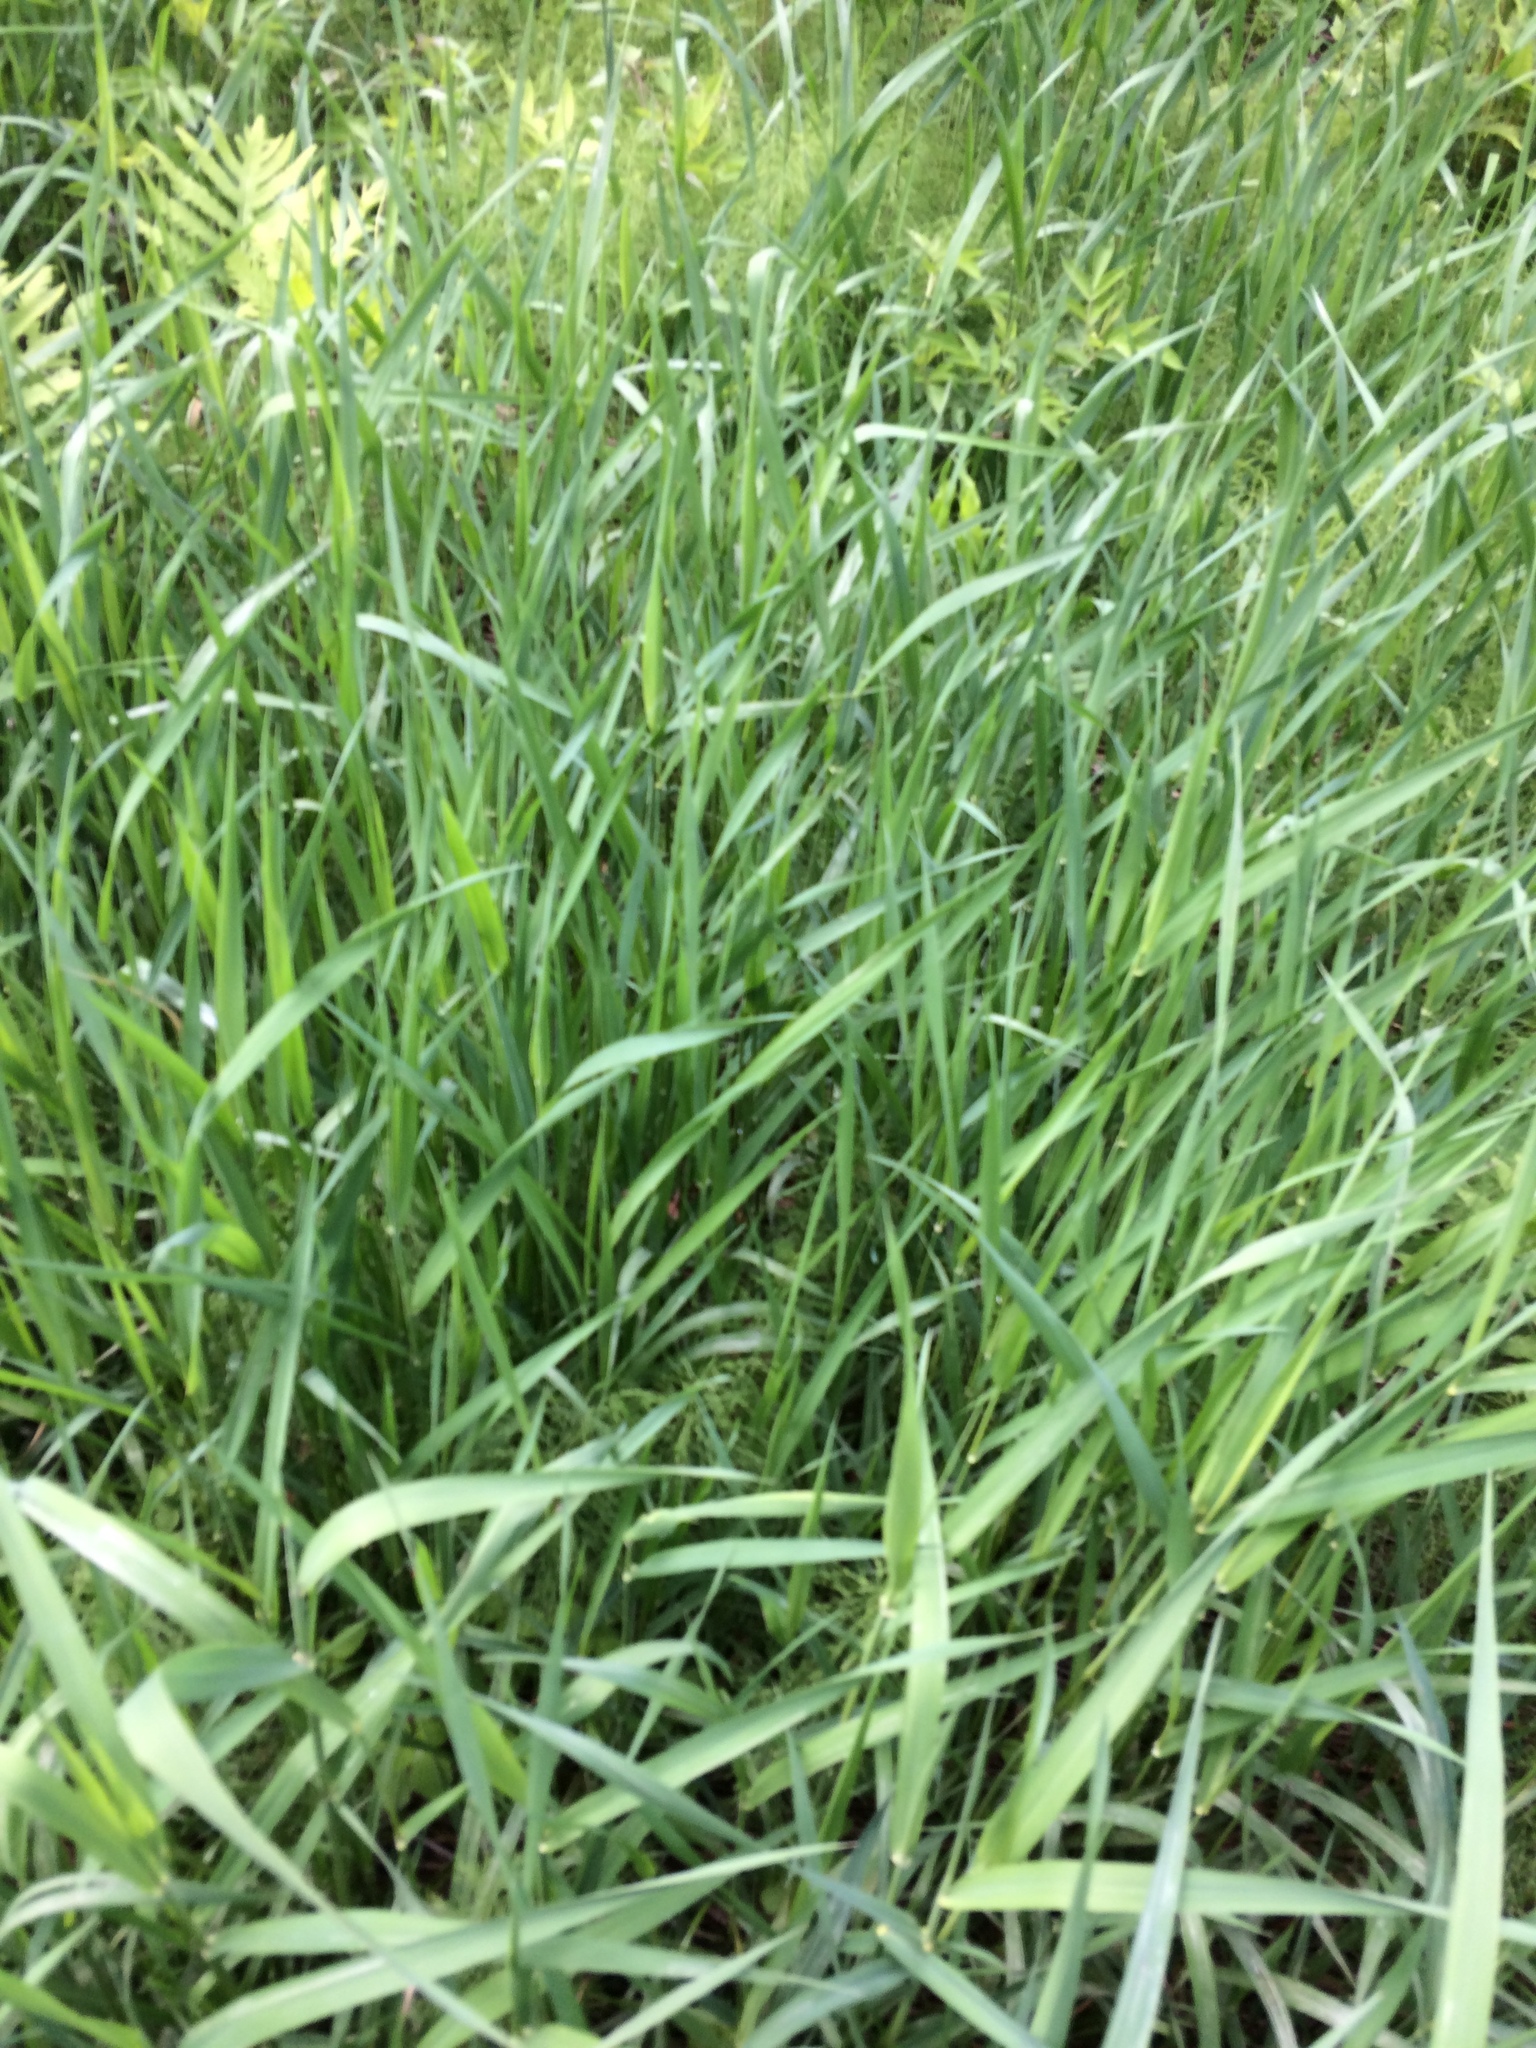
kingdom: Plantae
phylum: Tracheophyta
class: Liliopsida
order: Poales
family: Poaceae
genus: Phalaris
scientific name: Phalaris arundinacea
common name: Reed canary-grass
